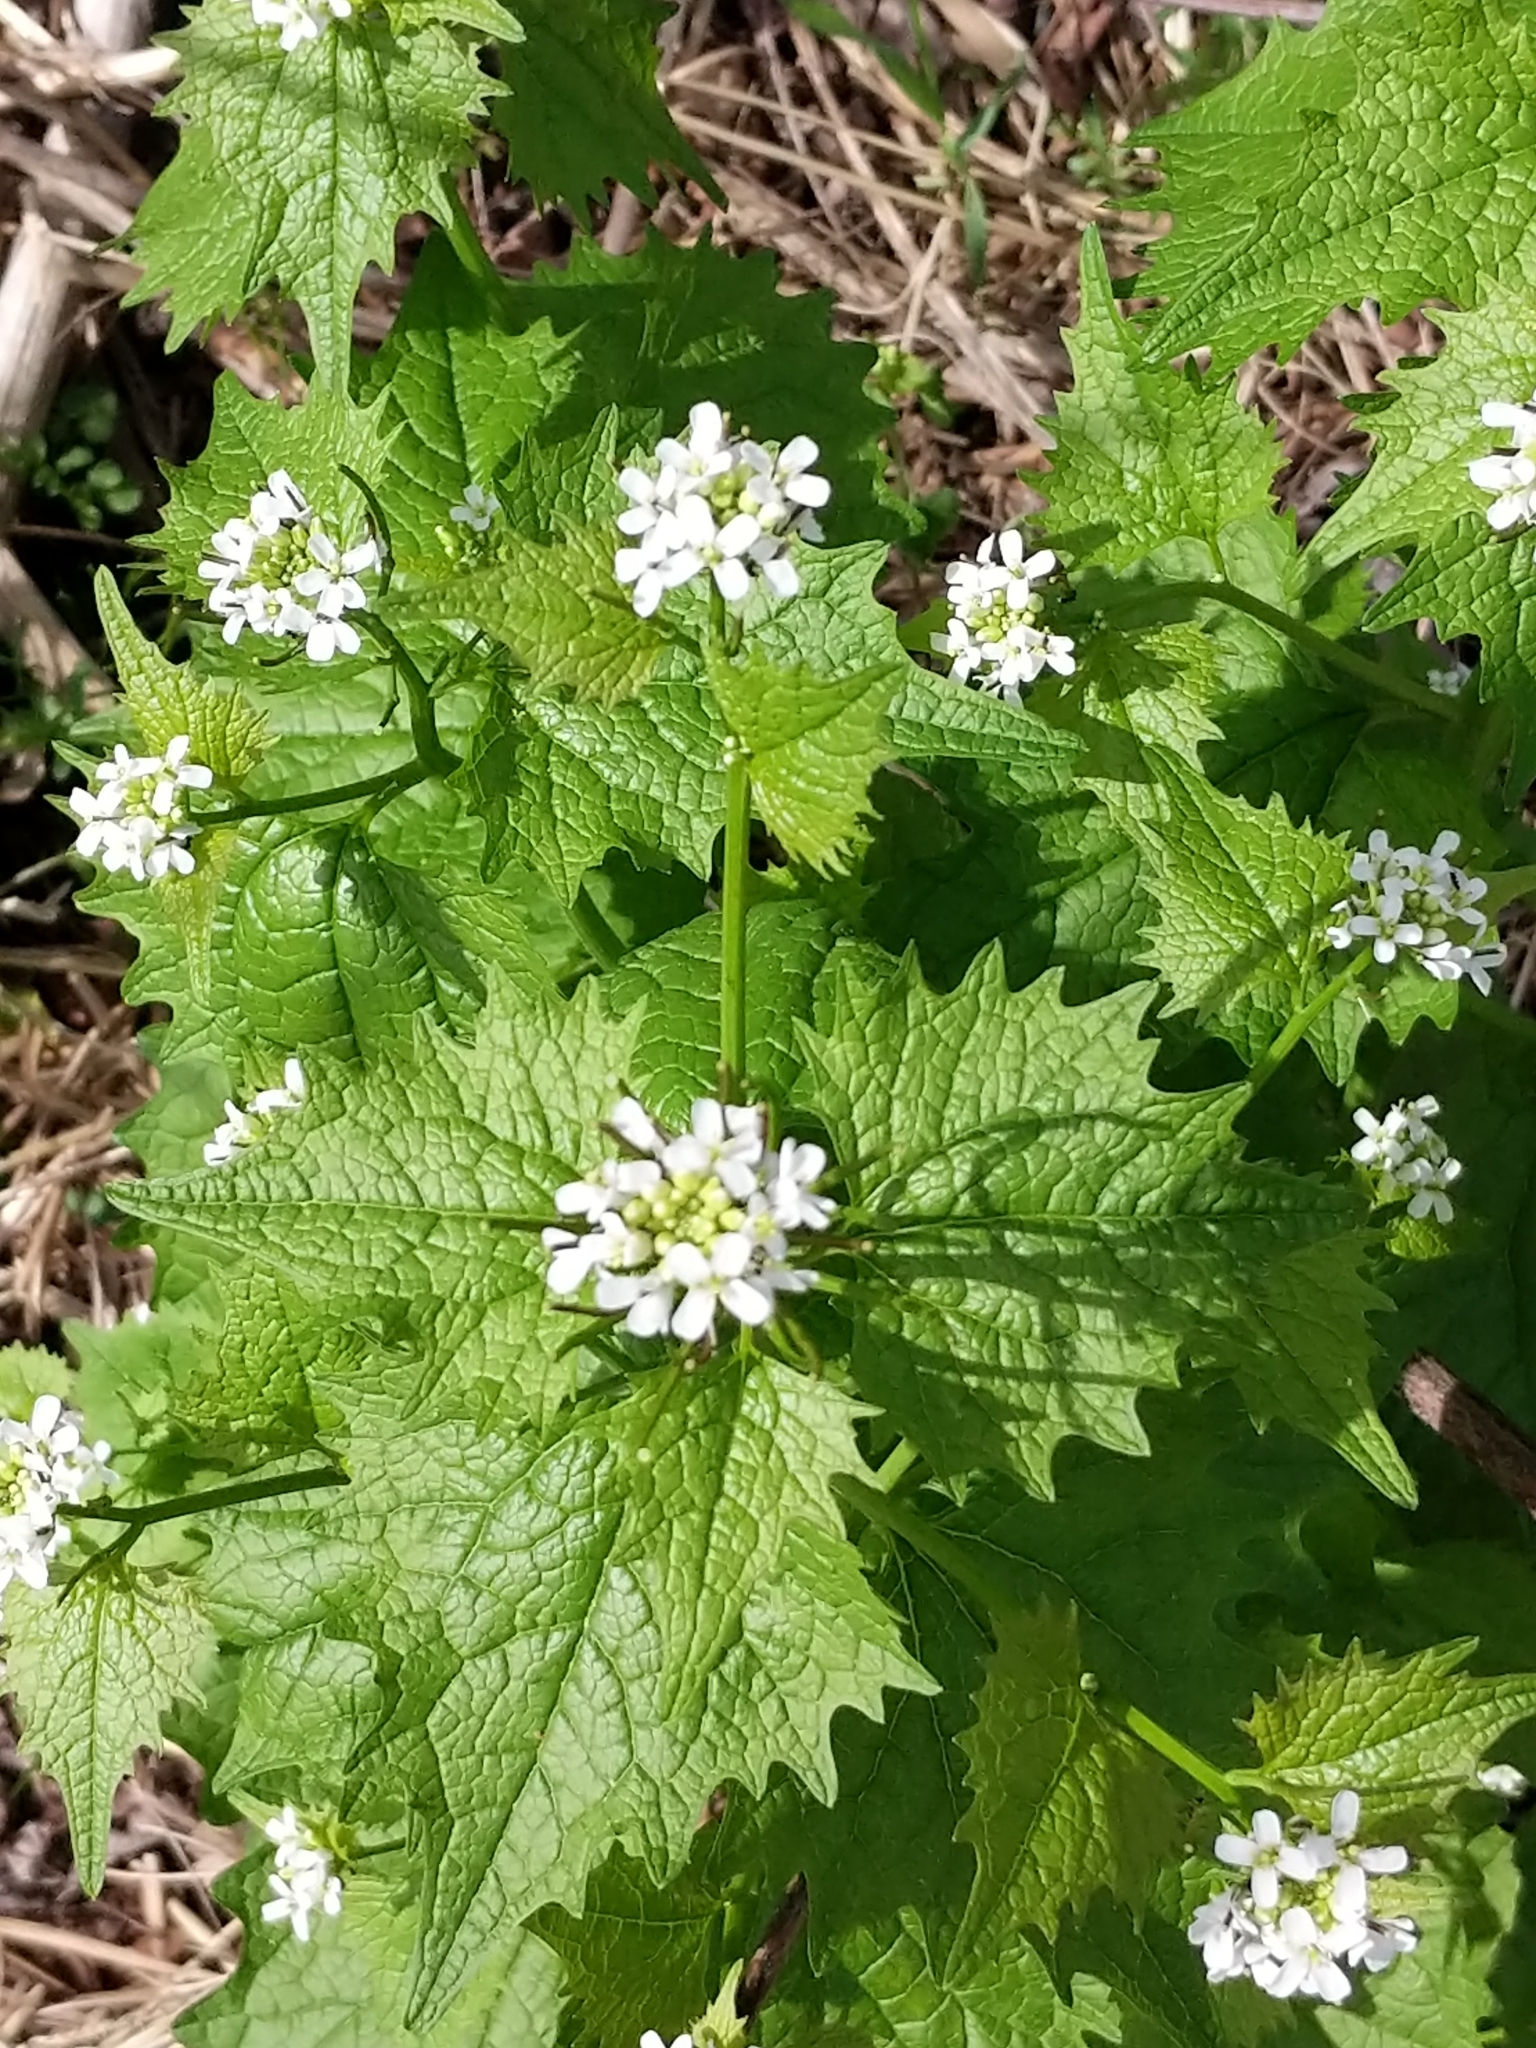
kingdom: Plantae
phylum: Tracheophyta
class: Magnoliopsida
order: Brassicales
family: Brassicaceae
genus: Alliaria
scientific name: Alliaria petiolata
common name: Garlic mustard
